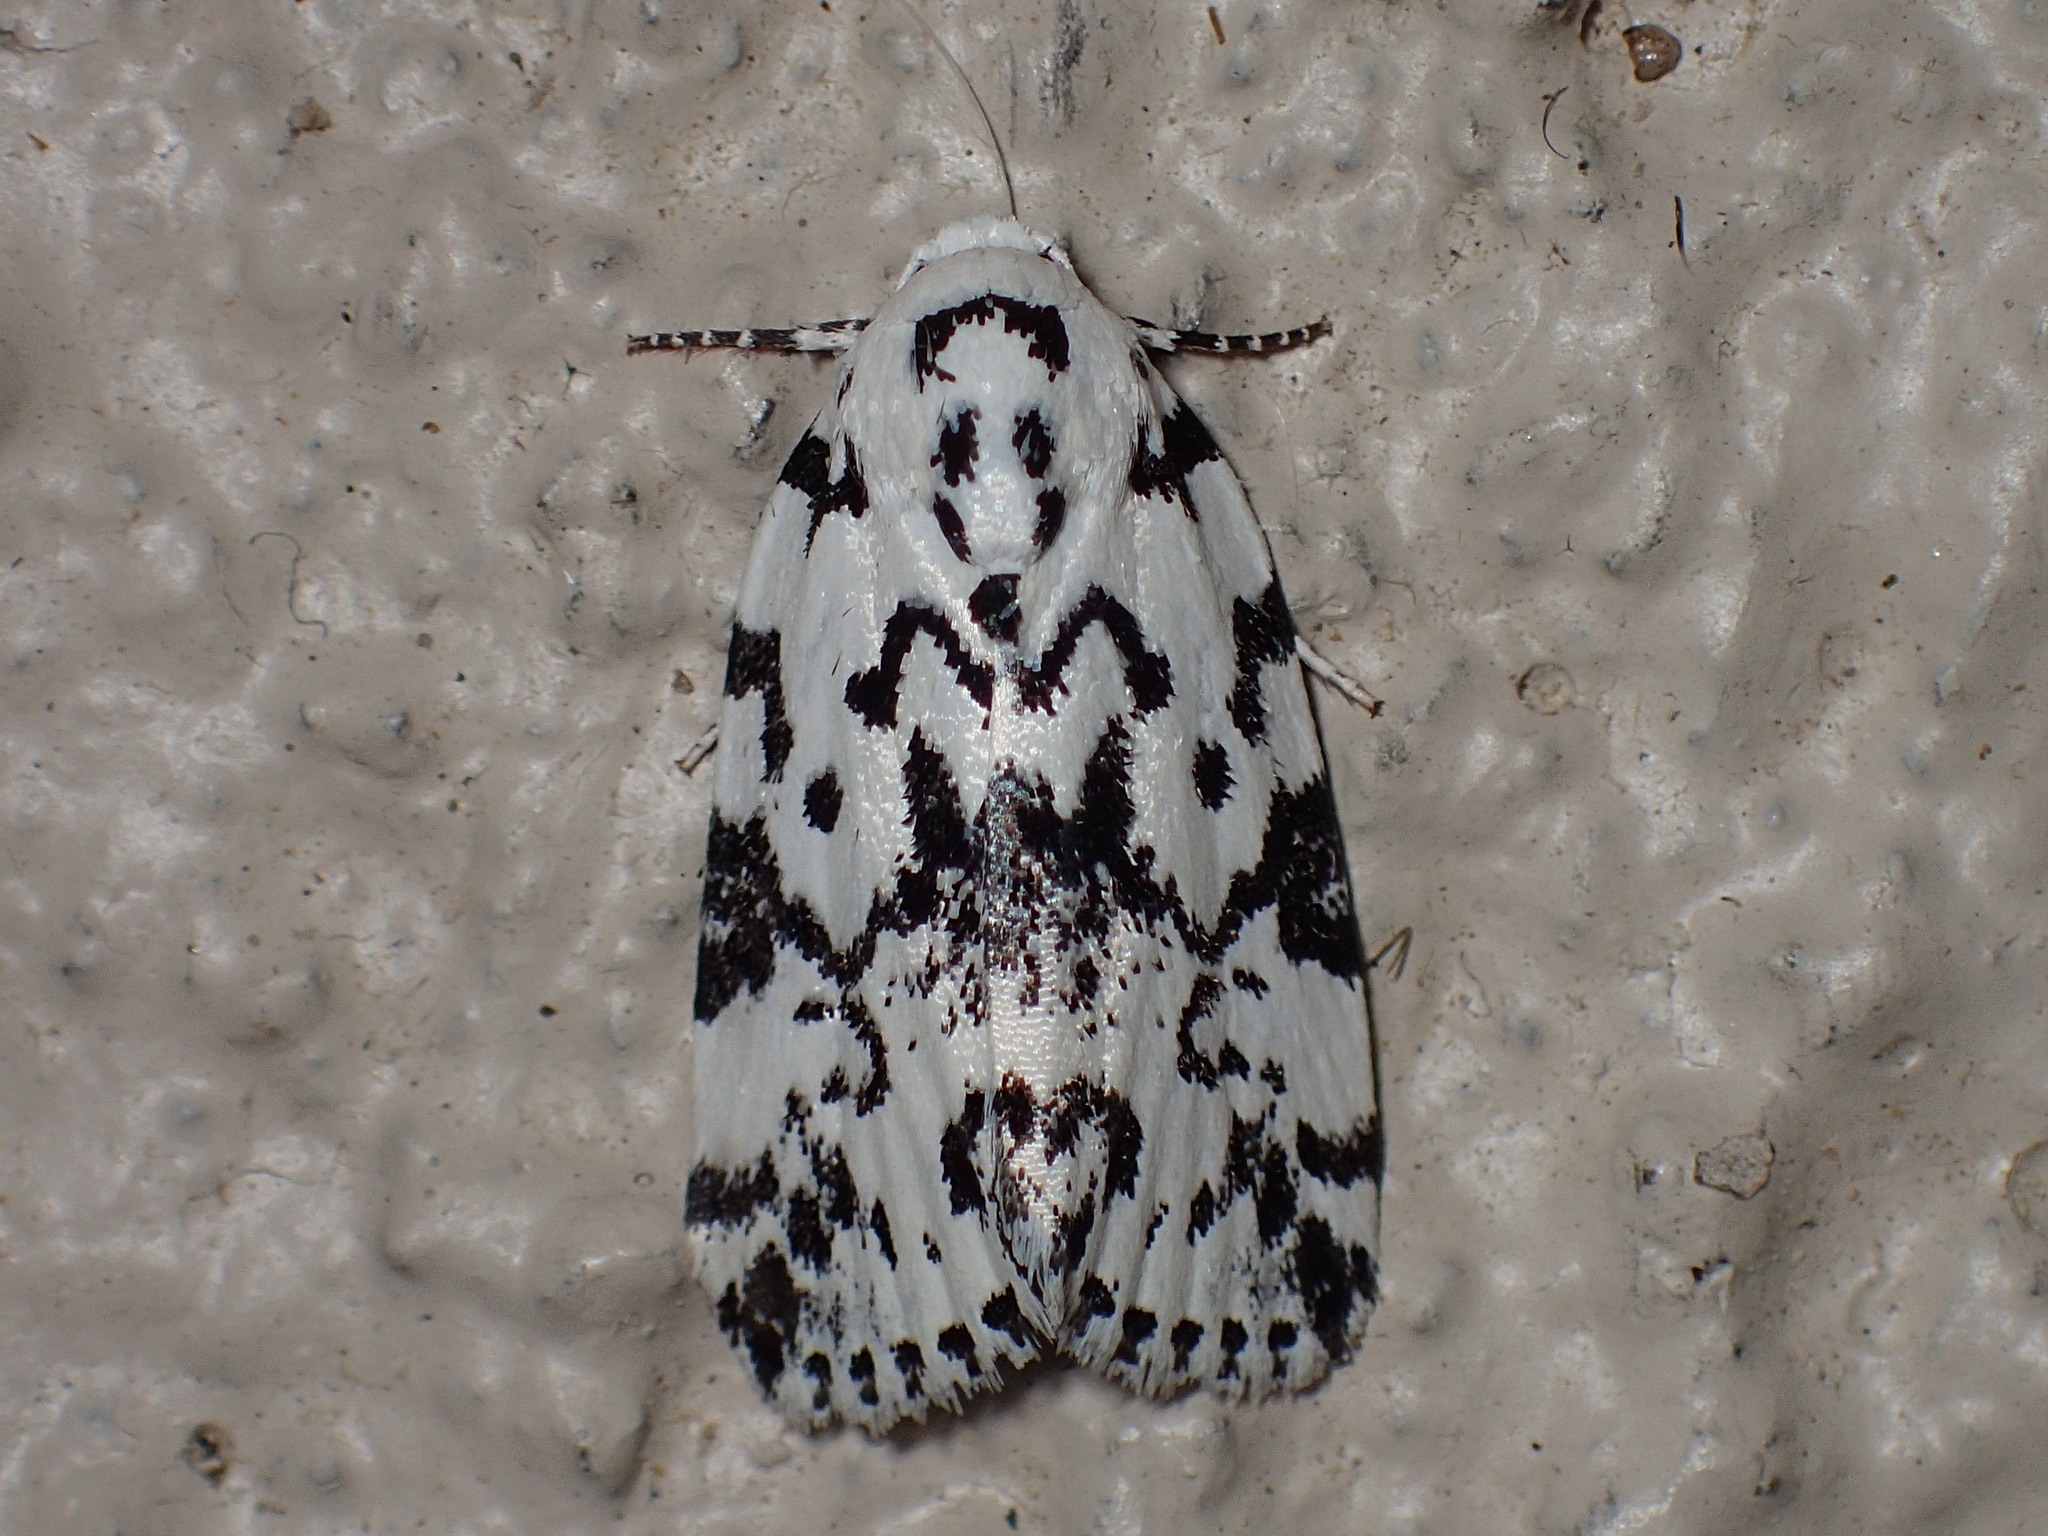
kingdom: Animalia
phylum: Arthropoda
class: Insecta
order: Lepidoptera
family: Noctuidae
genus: Polygrammate
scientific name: Polygrammate hebraeicum
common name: Hebrew moth
